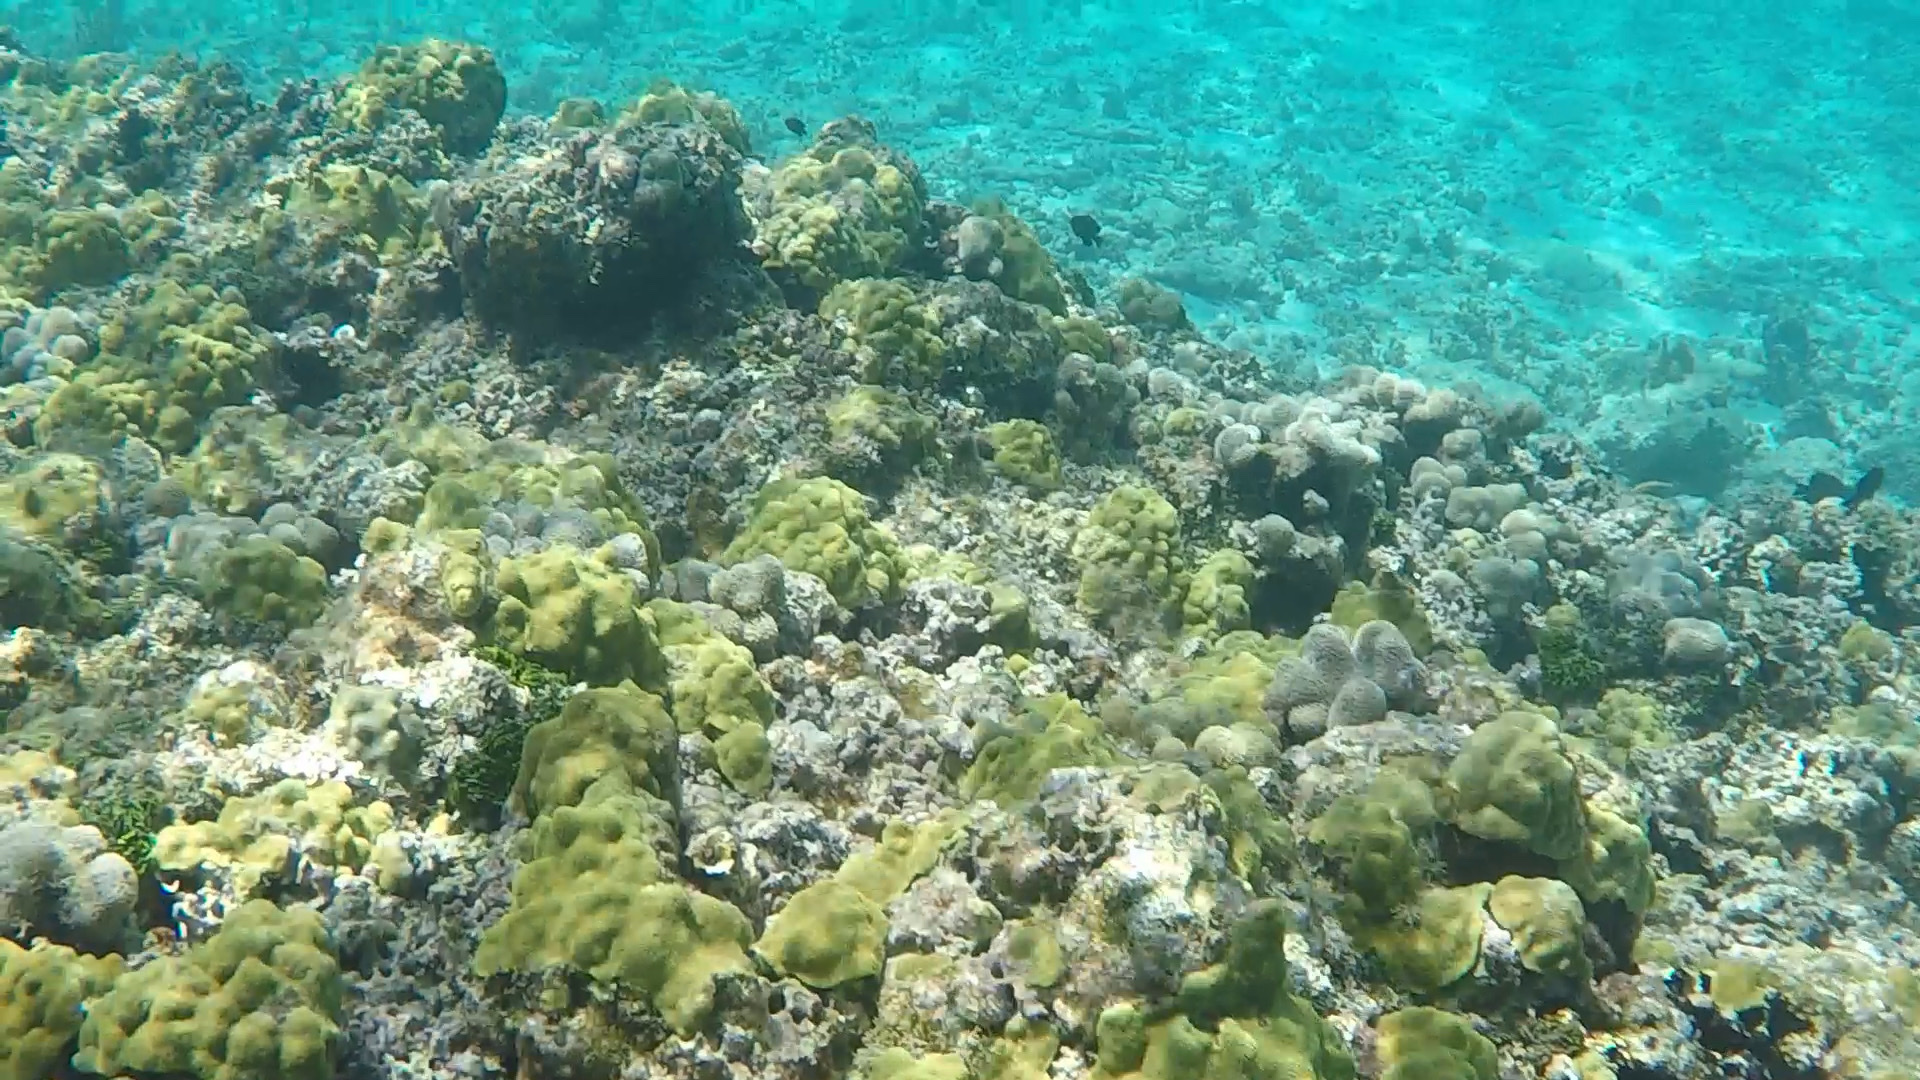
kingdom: Animalia
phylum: Cnidaria
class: Anthozoa
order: Scleractinia
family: Poritidae
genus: Porites
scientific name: Porites astreoides
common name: Mustard hill coral
